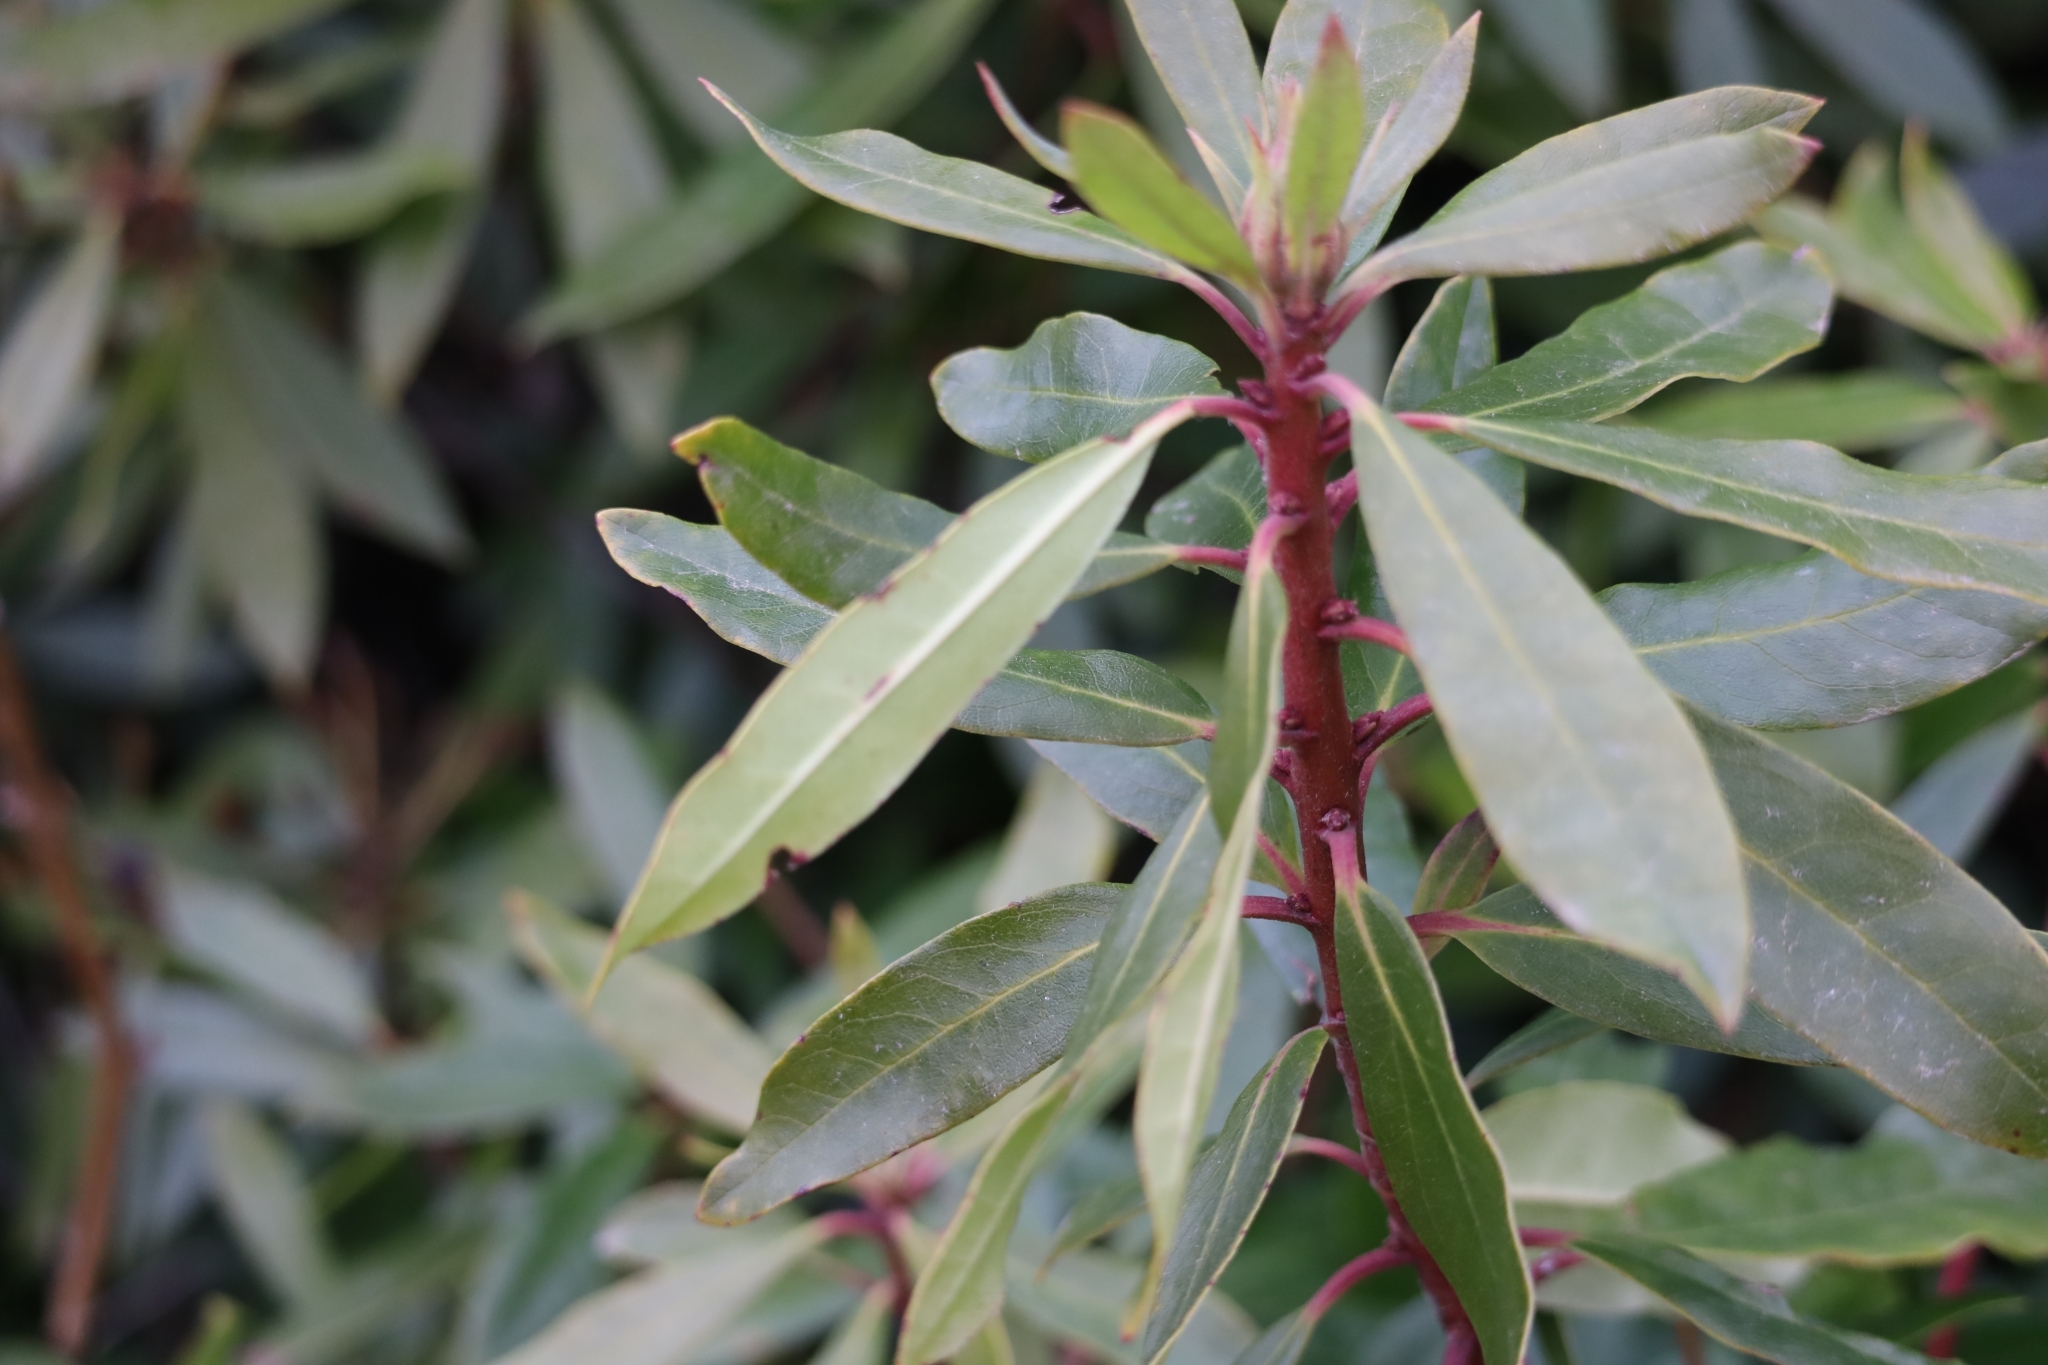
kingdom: Plantae
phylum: Tracheophyta
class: Magnoliopsida
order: Ericales
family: Ericaceae
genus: Rhododendron
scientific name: Rhododendron ponticum
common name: Rhododendron
